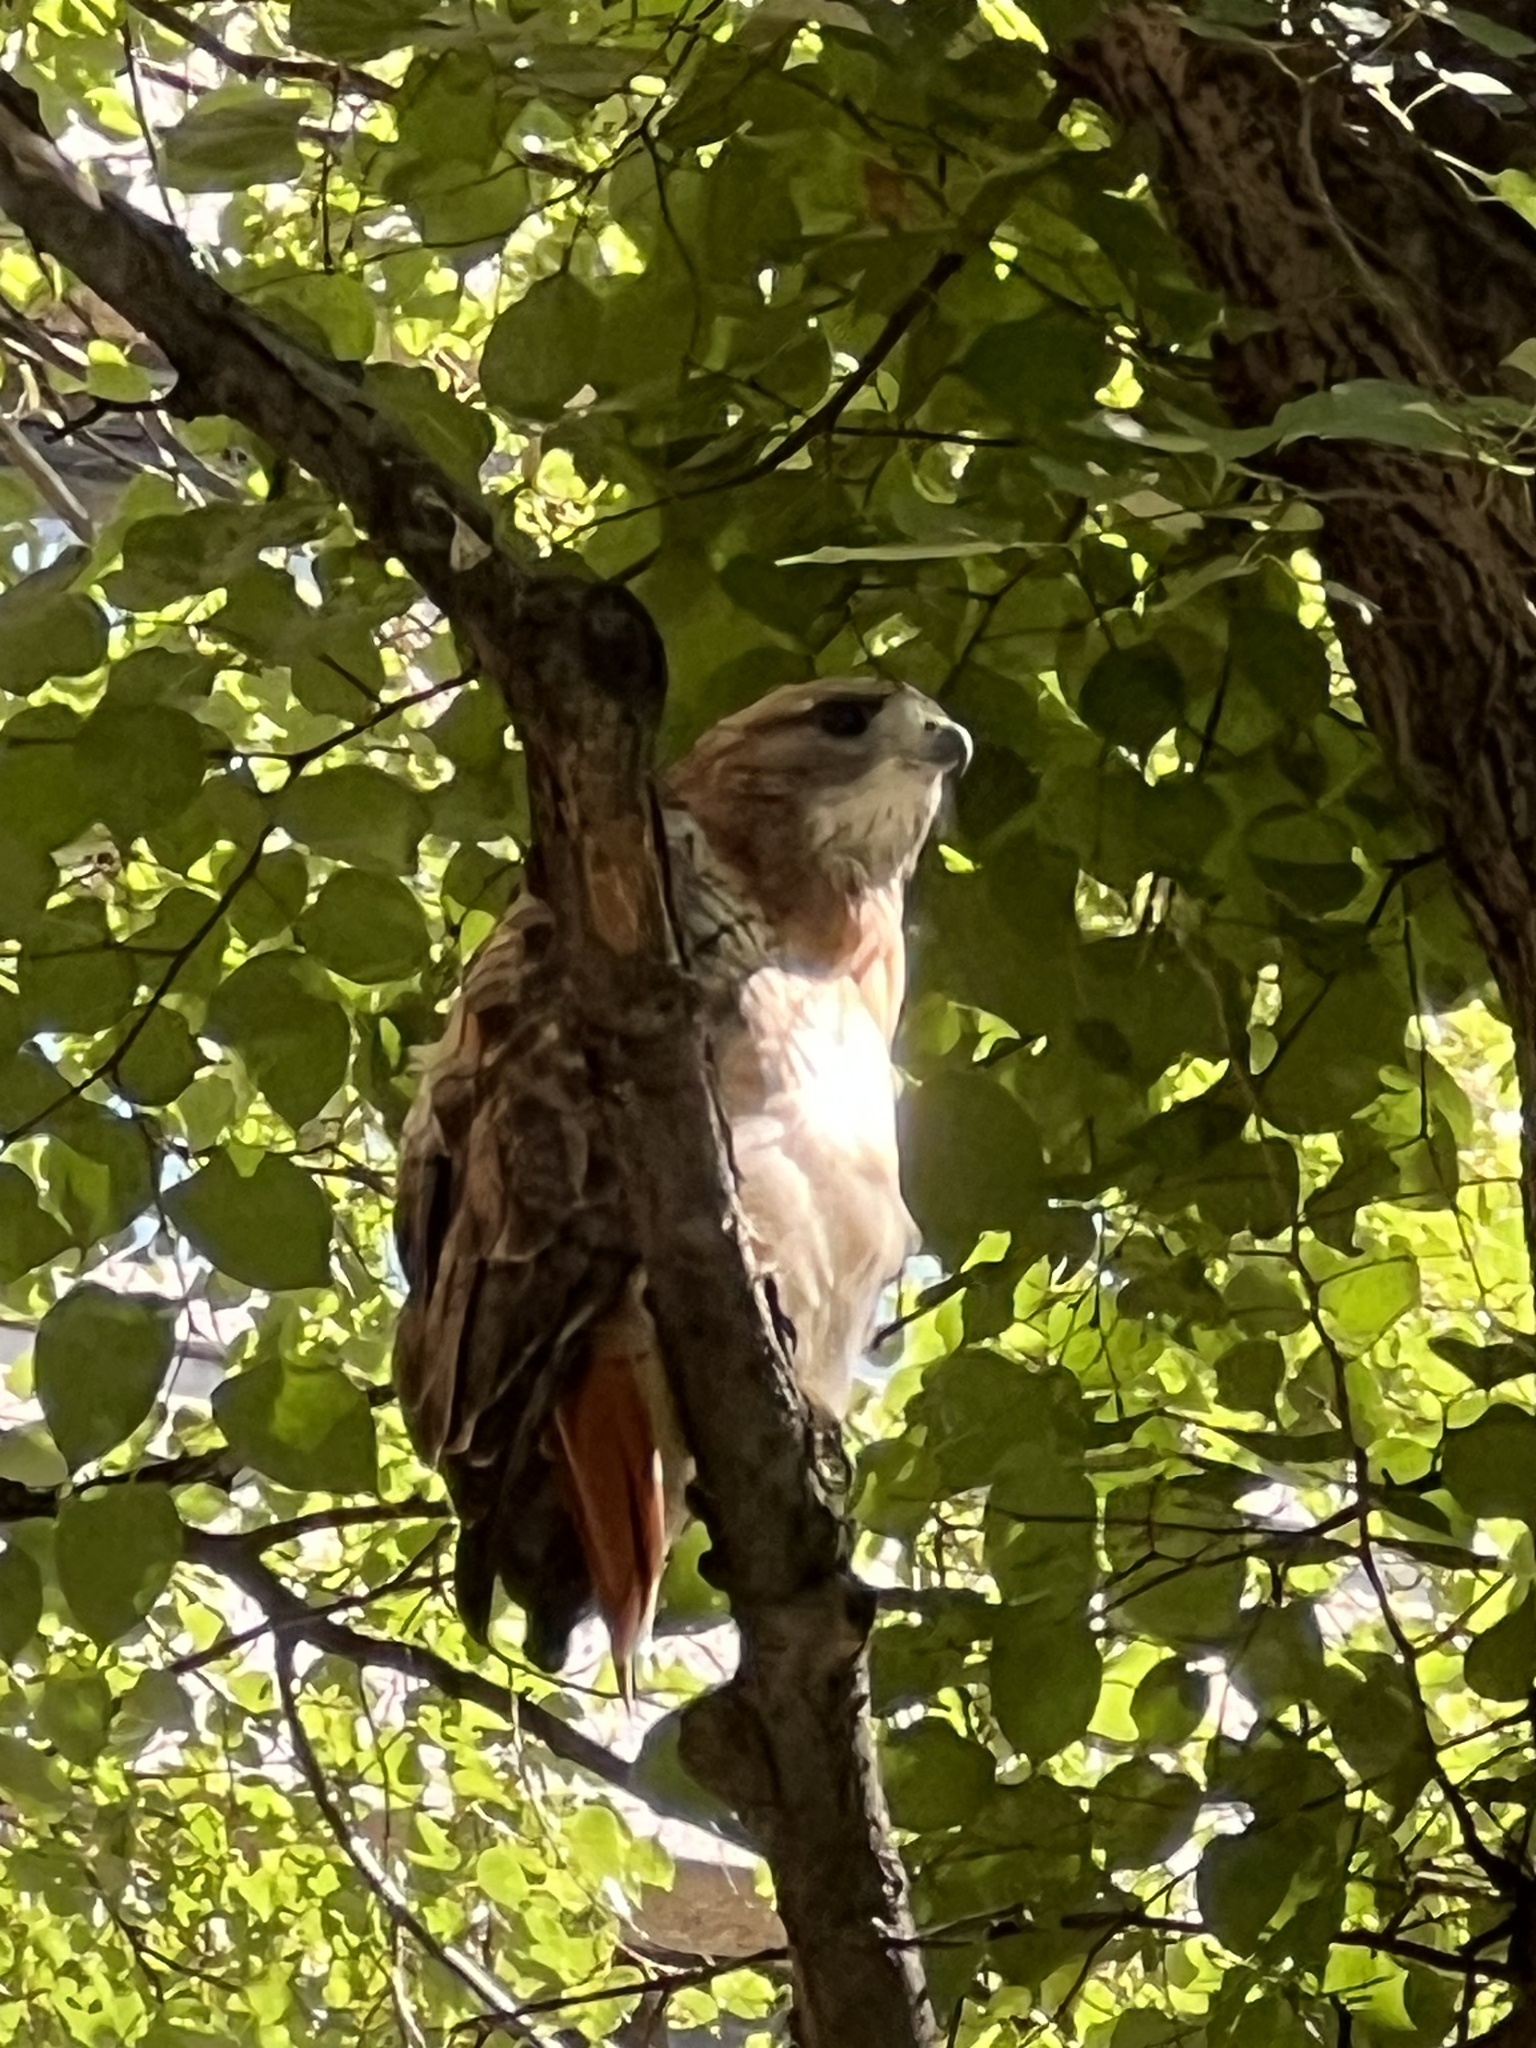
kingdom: Animalia
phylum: Chordata
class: Aves
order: Accipitriformes
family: Accipitridae
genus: Buteo
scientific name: Buteo jamaicensis
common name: Red-tailed hawk
